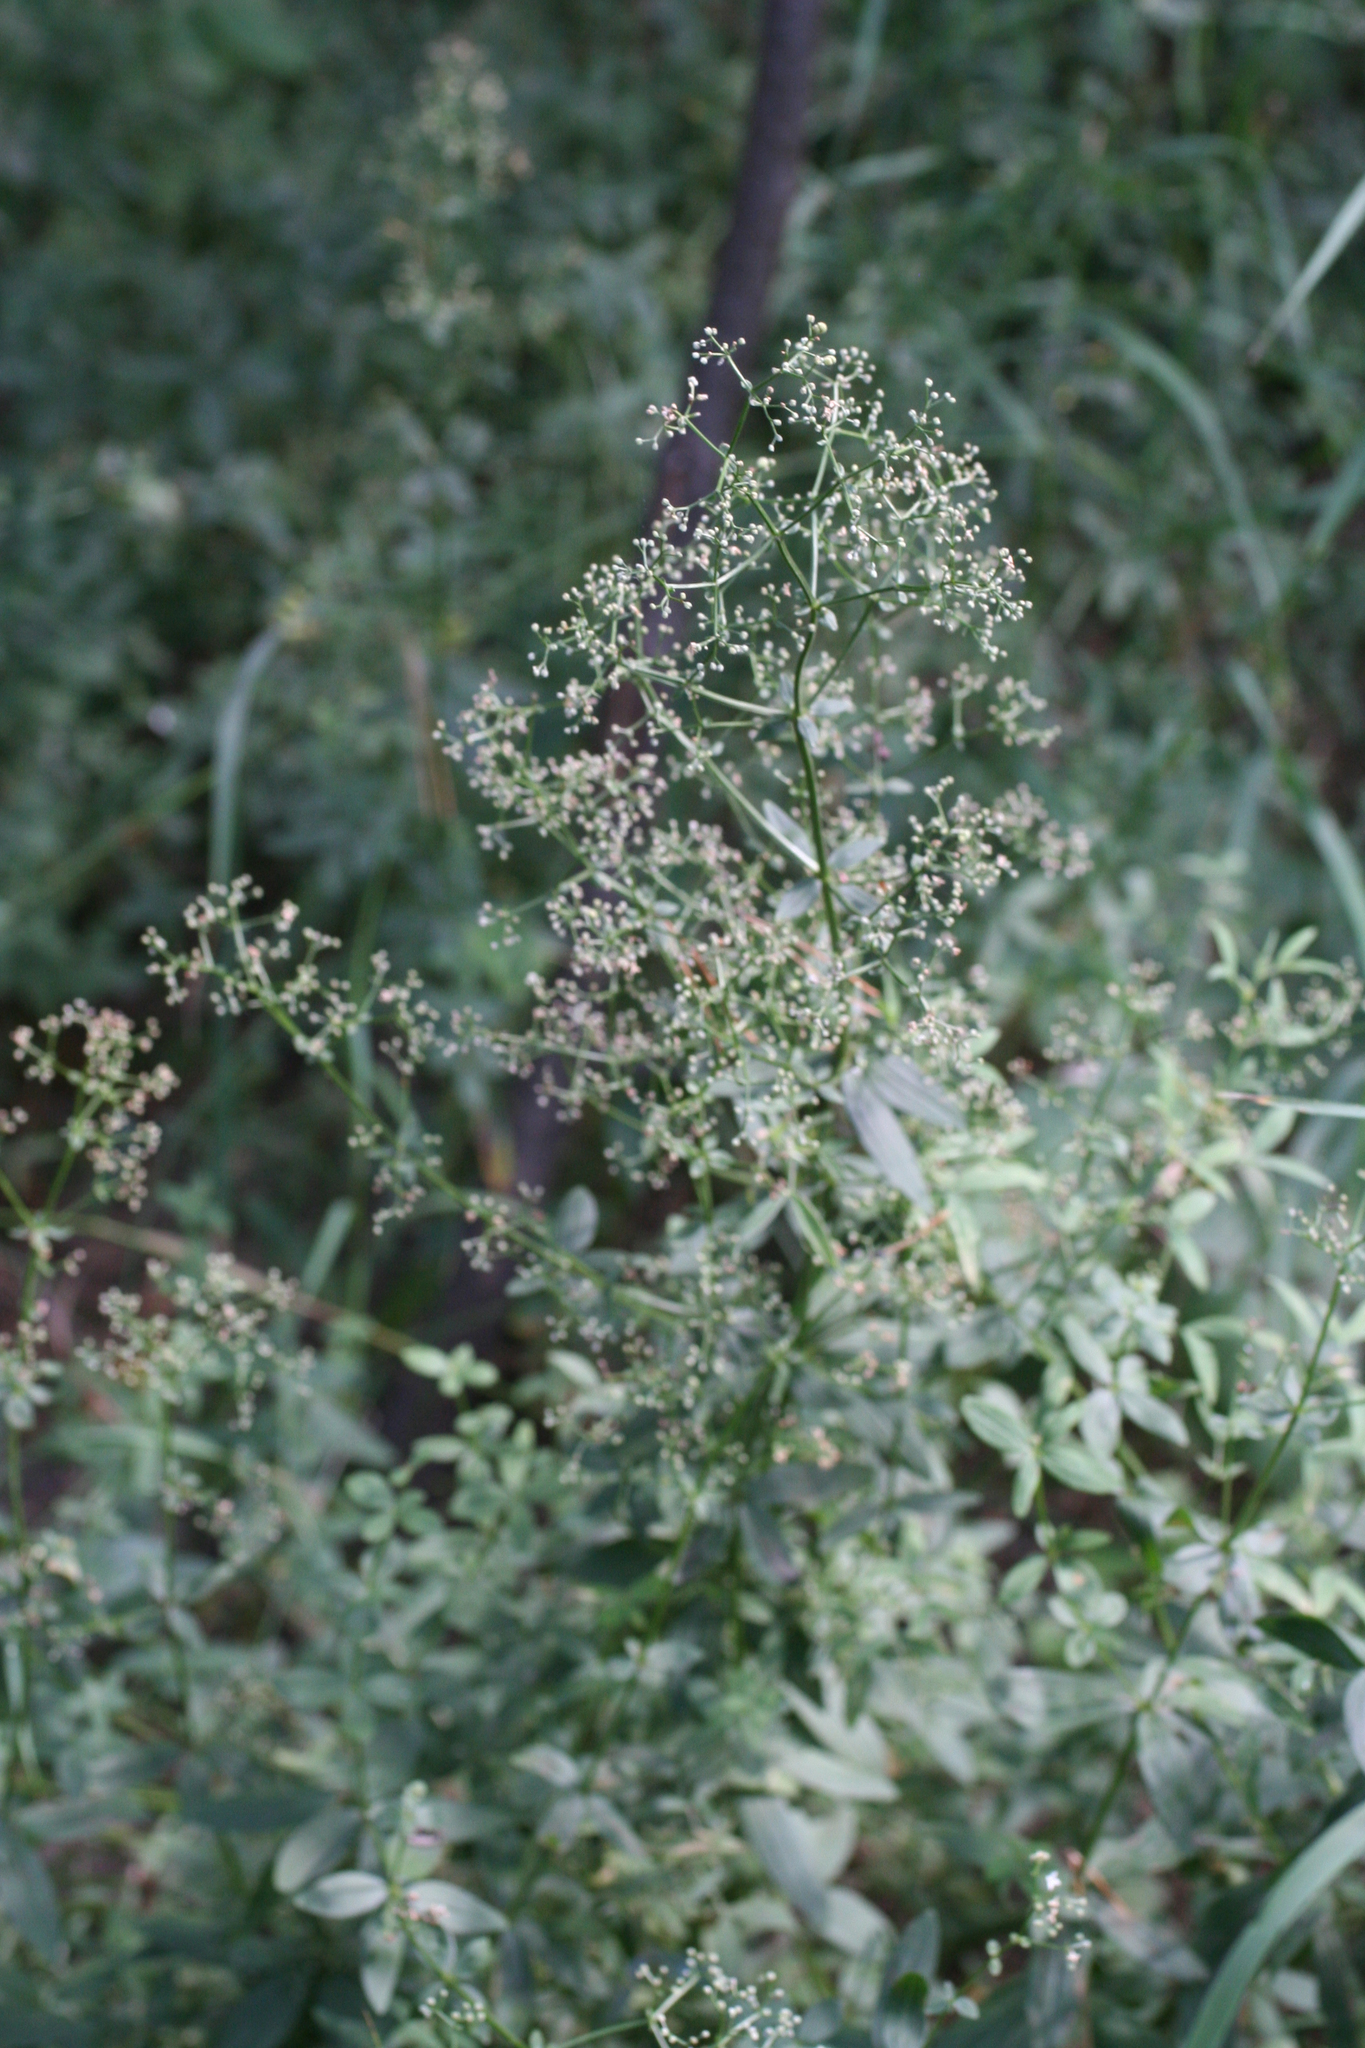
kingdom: Plantae
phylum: Tracheophyta
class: Magnoliopsida
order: Gentianales
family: Rubiaceae
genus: Galium
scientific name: Galium boreale
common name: Northern bedstraw
